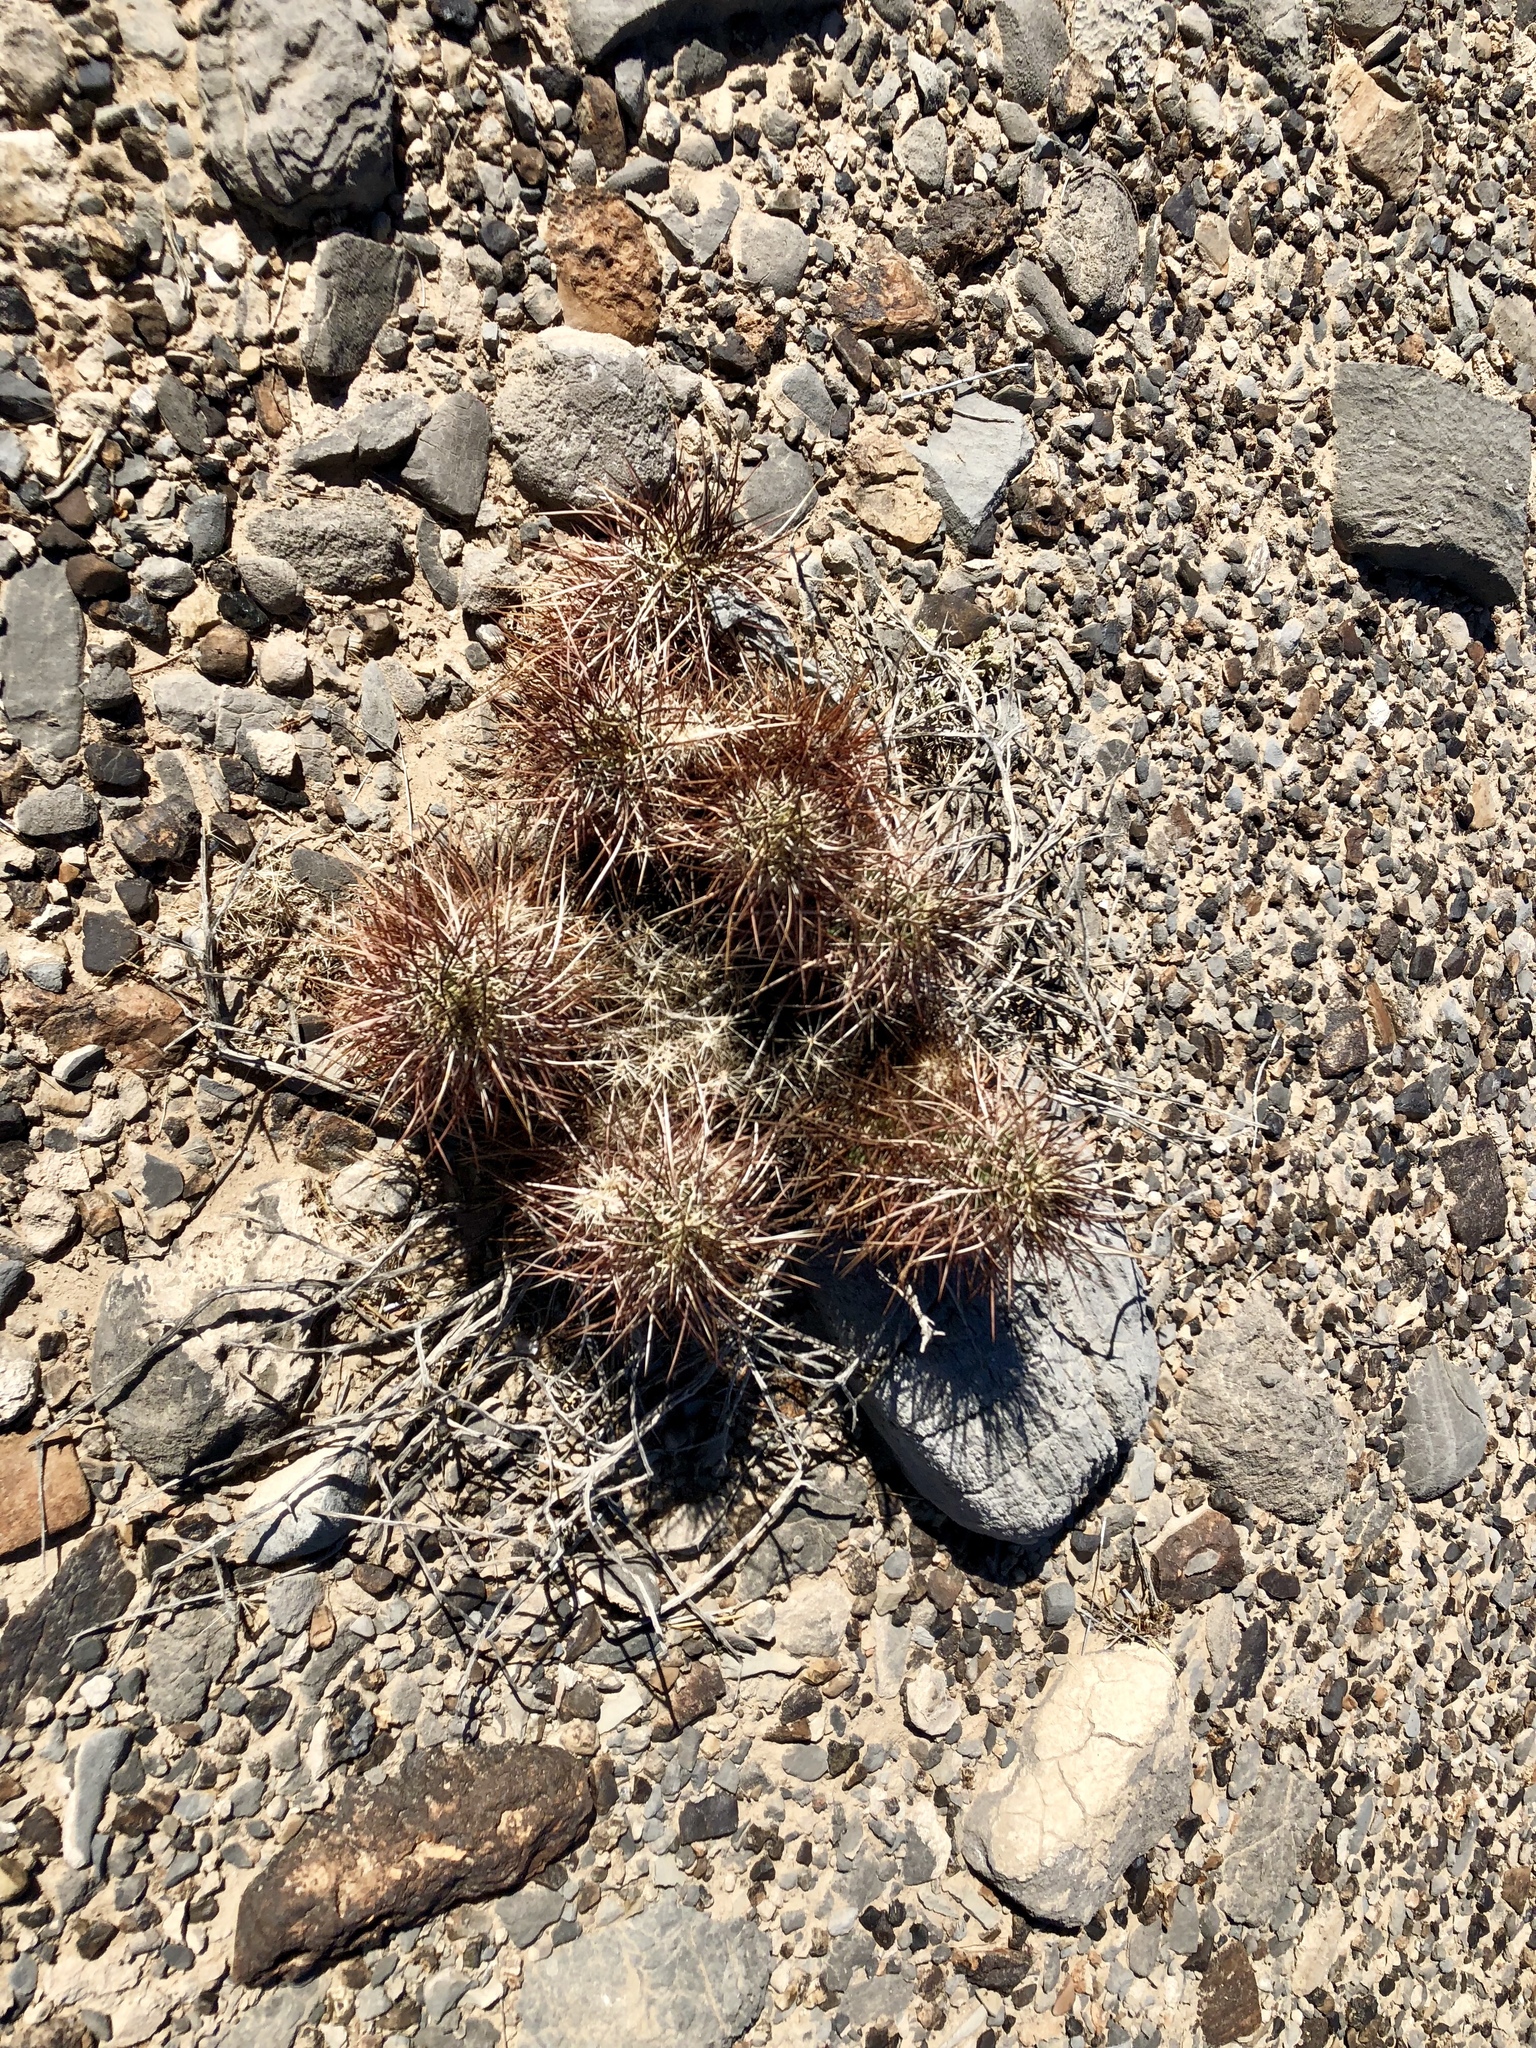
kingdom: Plantae
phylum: Tracheophyta
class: Magnoliopsida
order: Caryophyllales
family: Cactaceae
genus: Echinocereus
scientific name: Echinocereus engelmannii
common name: Engelmann's hedgehog cactus
